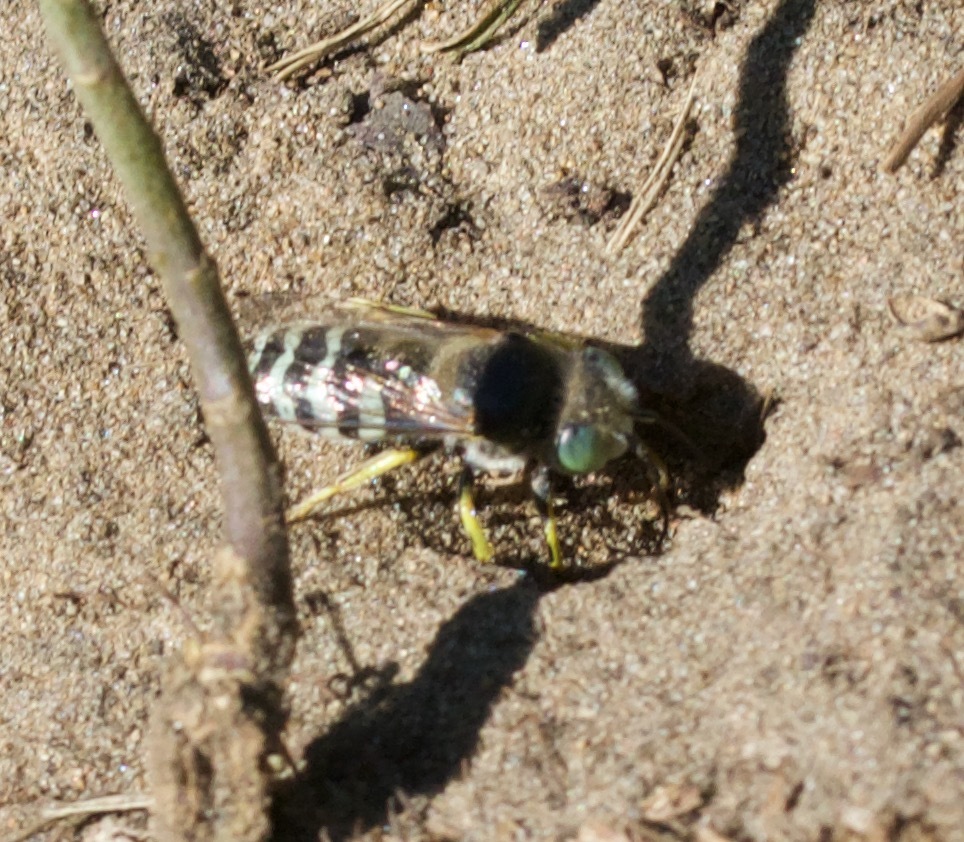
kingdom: Animalia
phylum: Arthropoda
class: Insecta
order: Hymenoptera
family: Crabronidae
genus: Bembix
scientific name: Bembix americana
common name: American sand wasp
